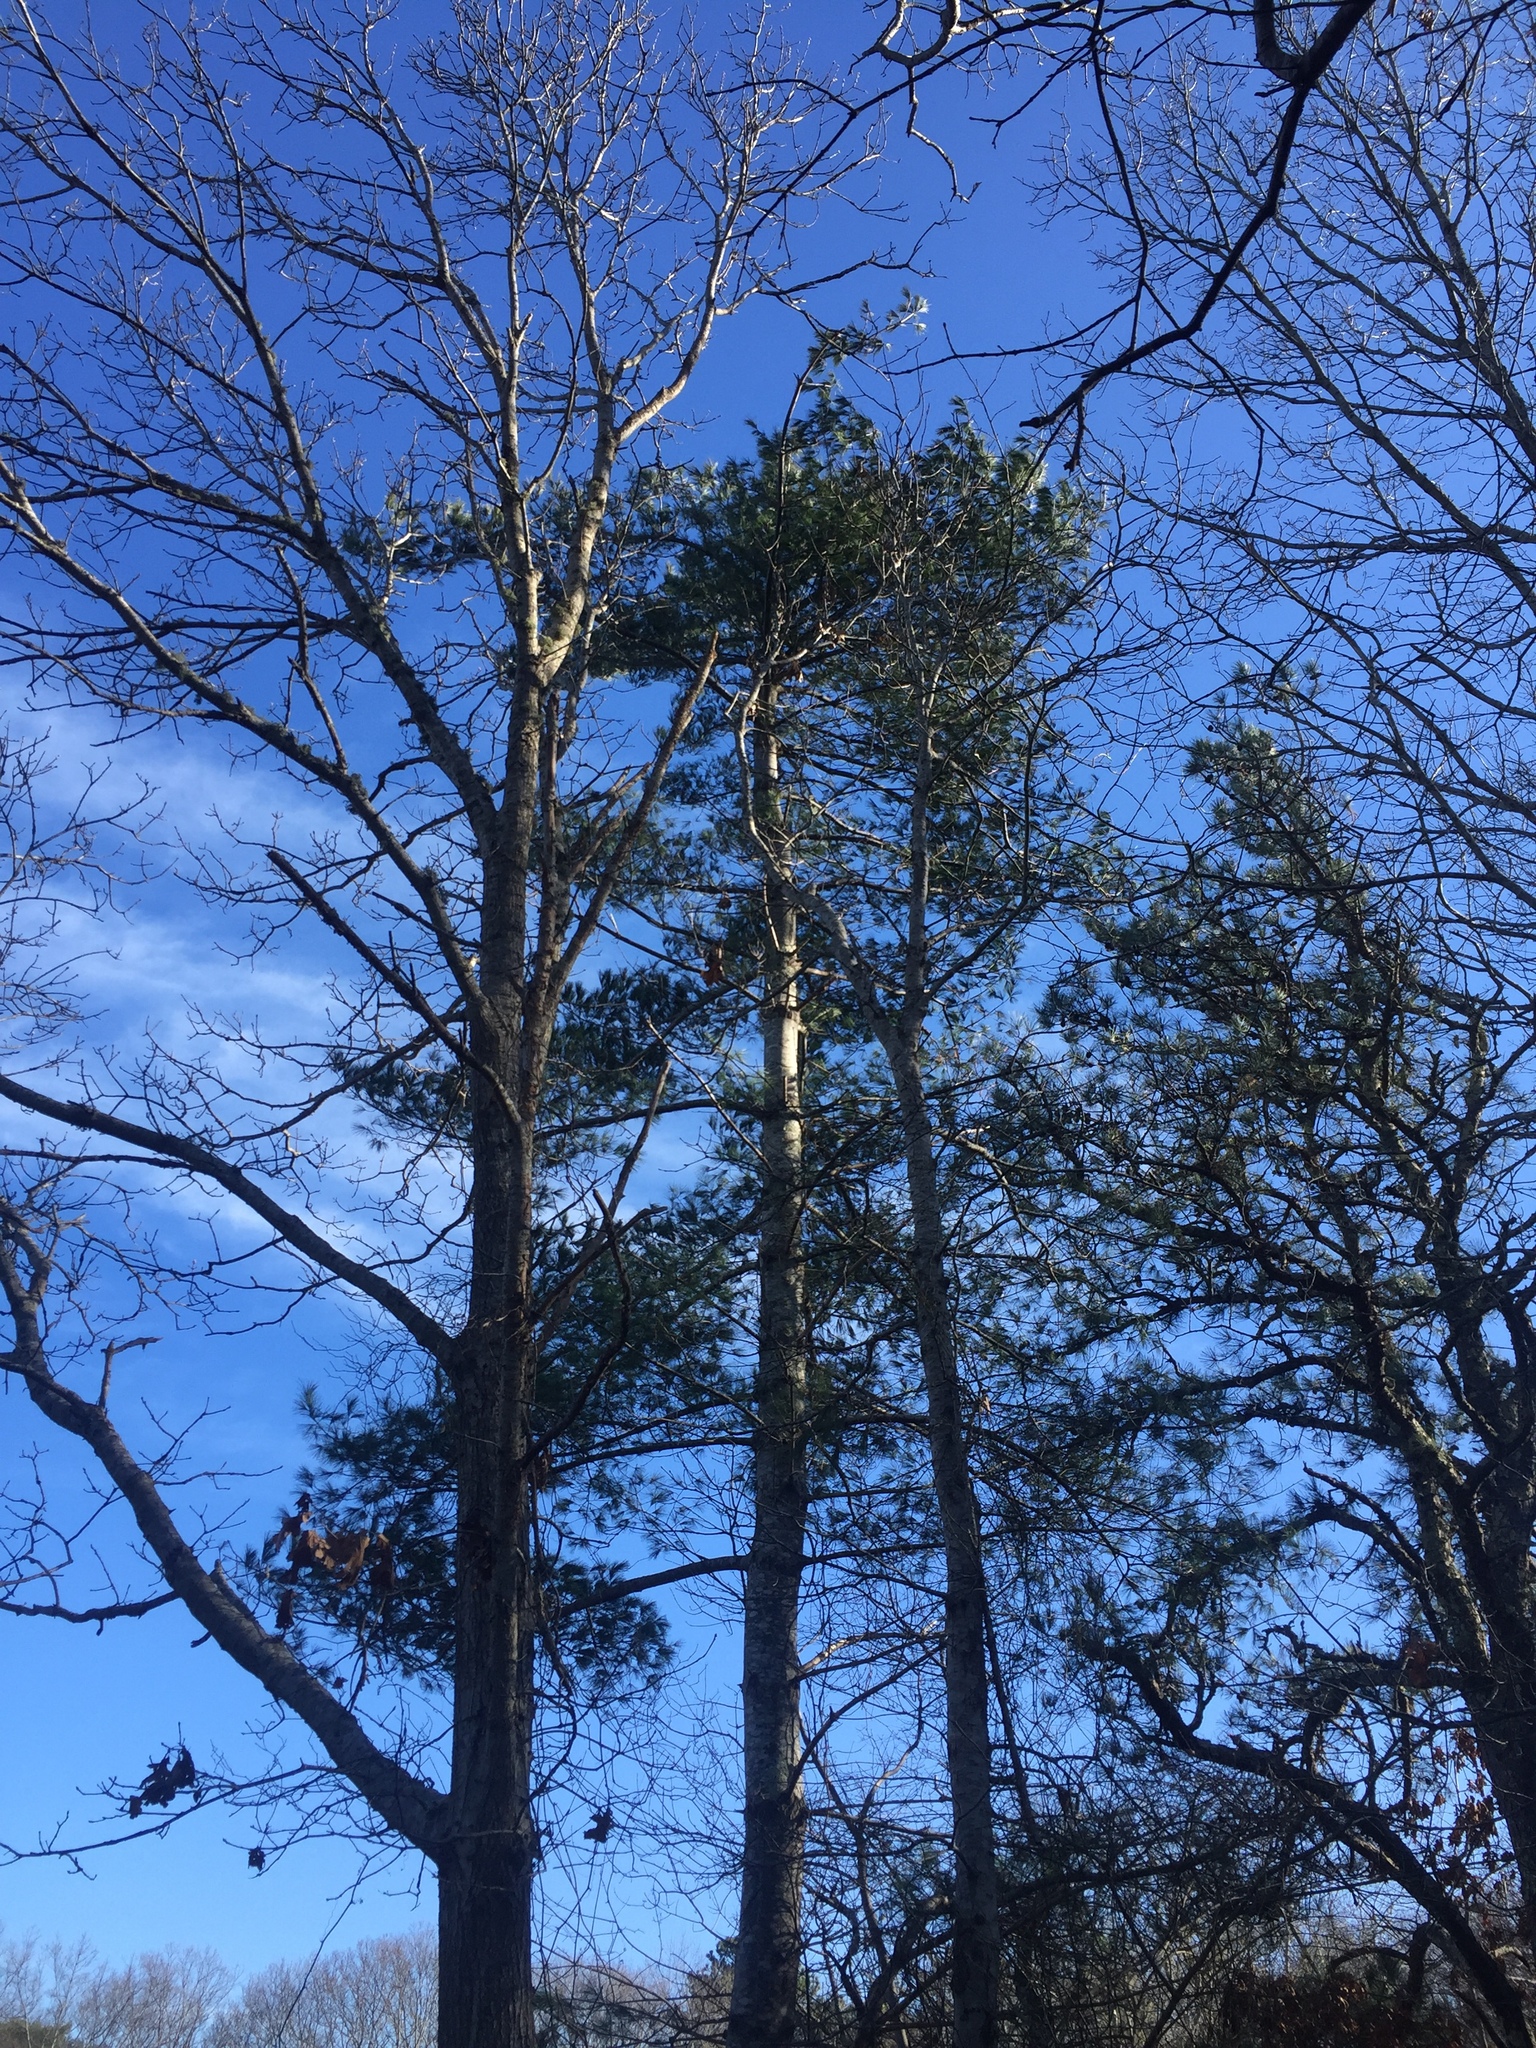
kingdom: Plantae
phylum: Tracheophyta
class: Pinopsida
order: Pinales
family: Pinaceae
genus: Pinus
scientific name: Pinus strobus
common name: Weymouth pine
